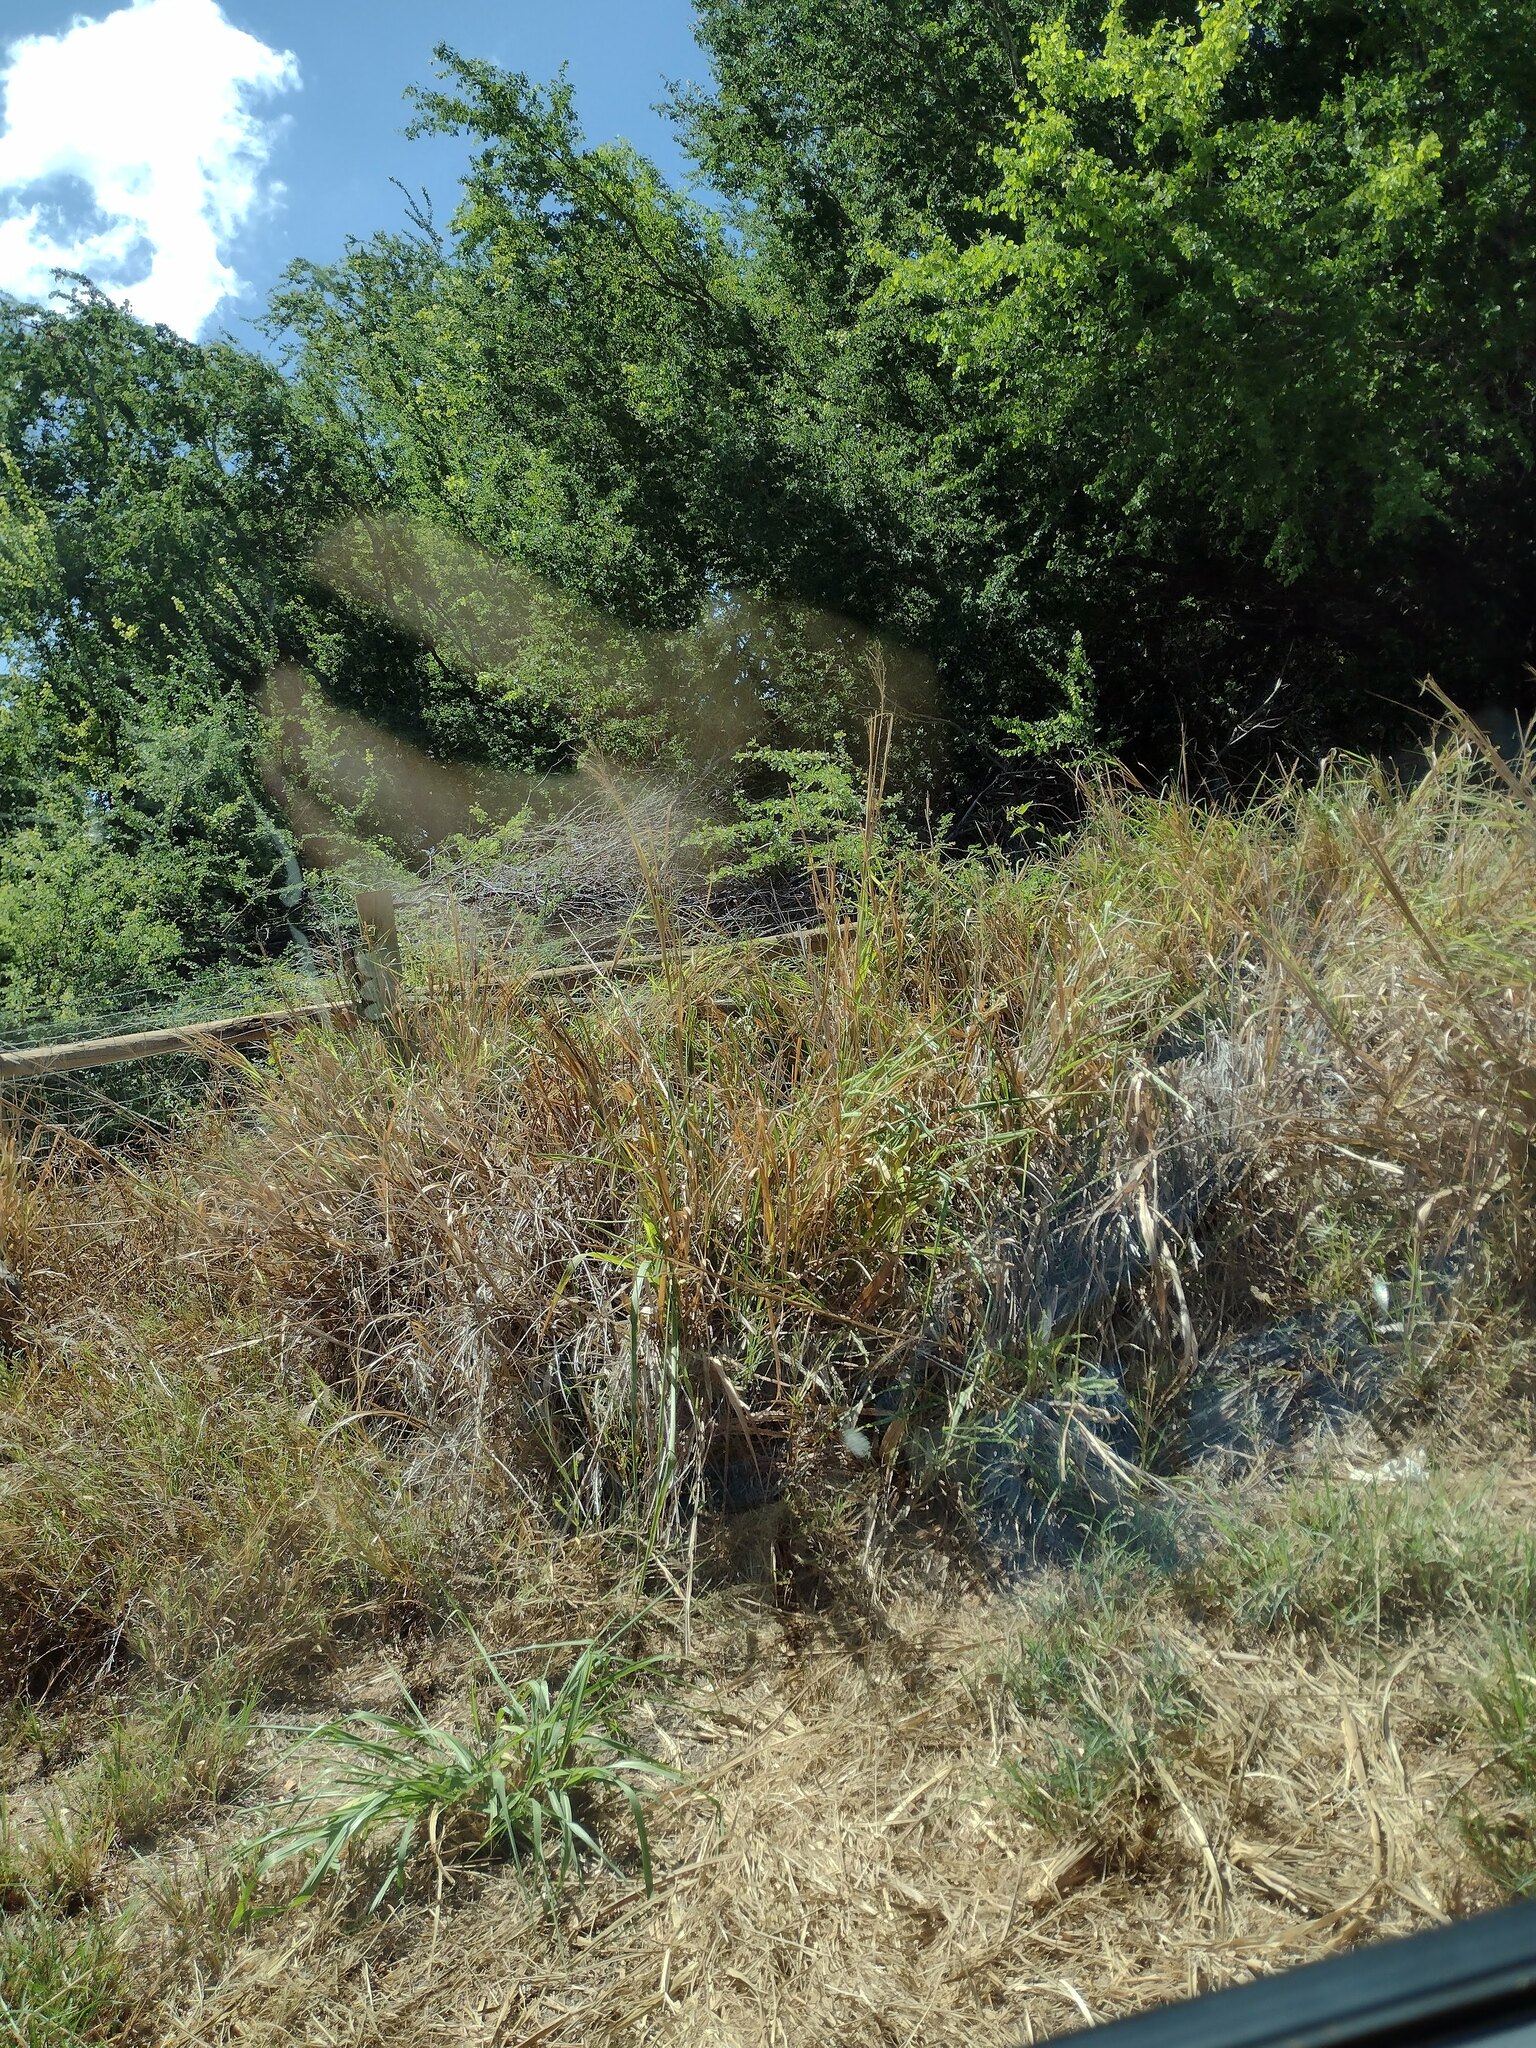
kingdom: Plantae
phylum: Tracheophyta
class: Liliopsida
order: Poales
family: Poaceae
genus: Megathyrsus
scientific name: Megathyrsus maximus
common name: Guineagrass
